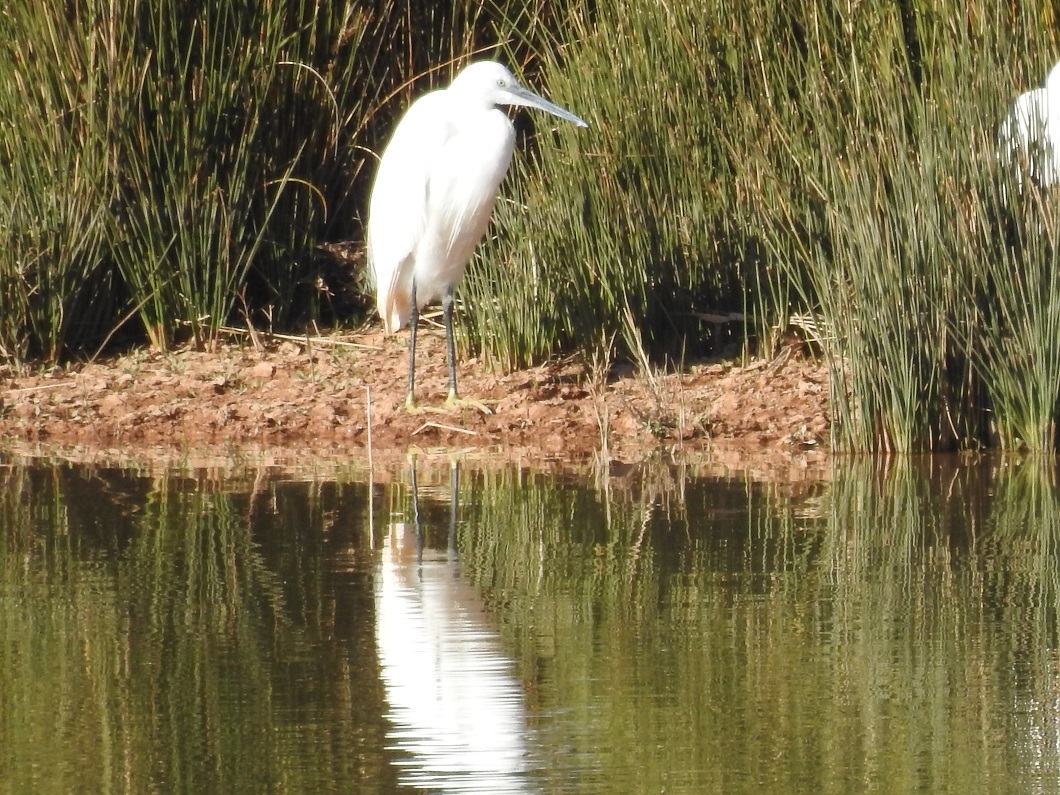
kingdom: Animalia
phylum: Chordata
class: Aves
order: Pelecaniformes
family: Ardeidae
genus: Egretta
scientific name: Egretta garzetta
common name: Little egret
